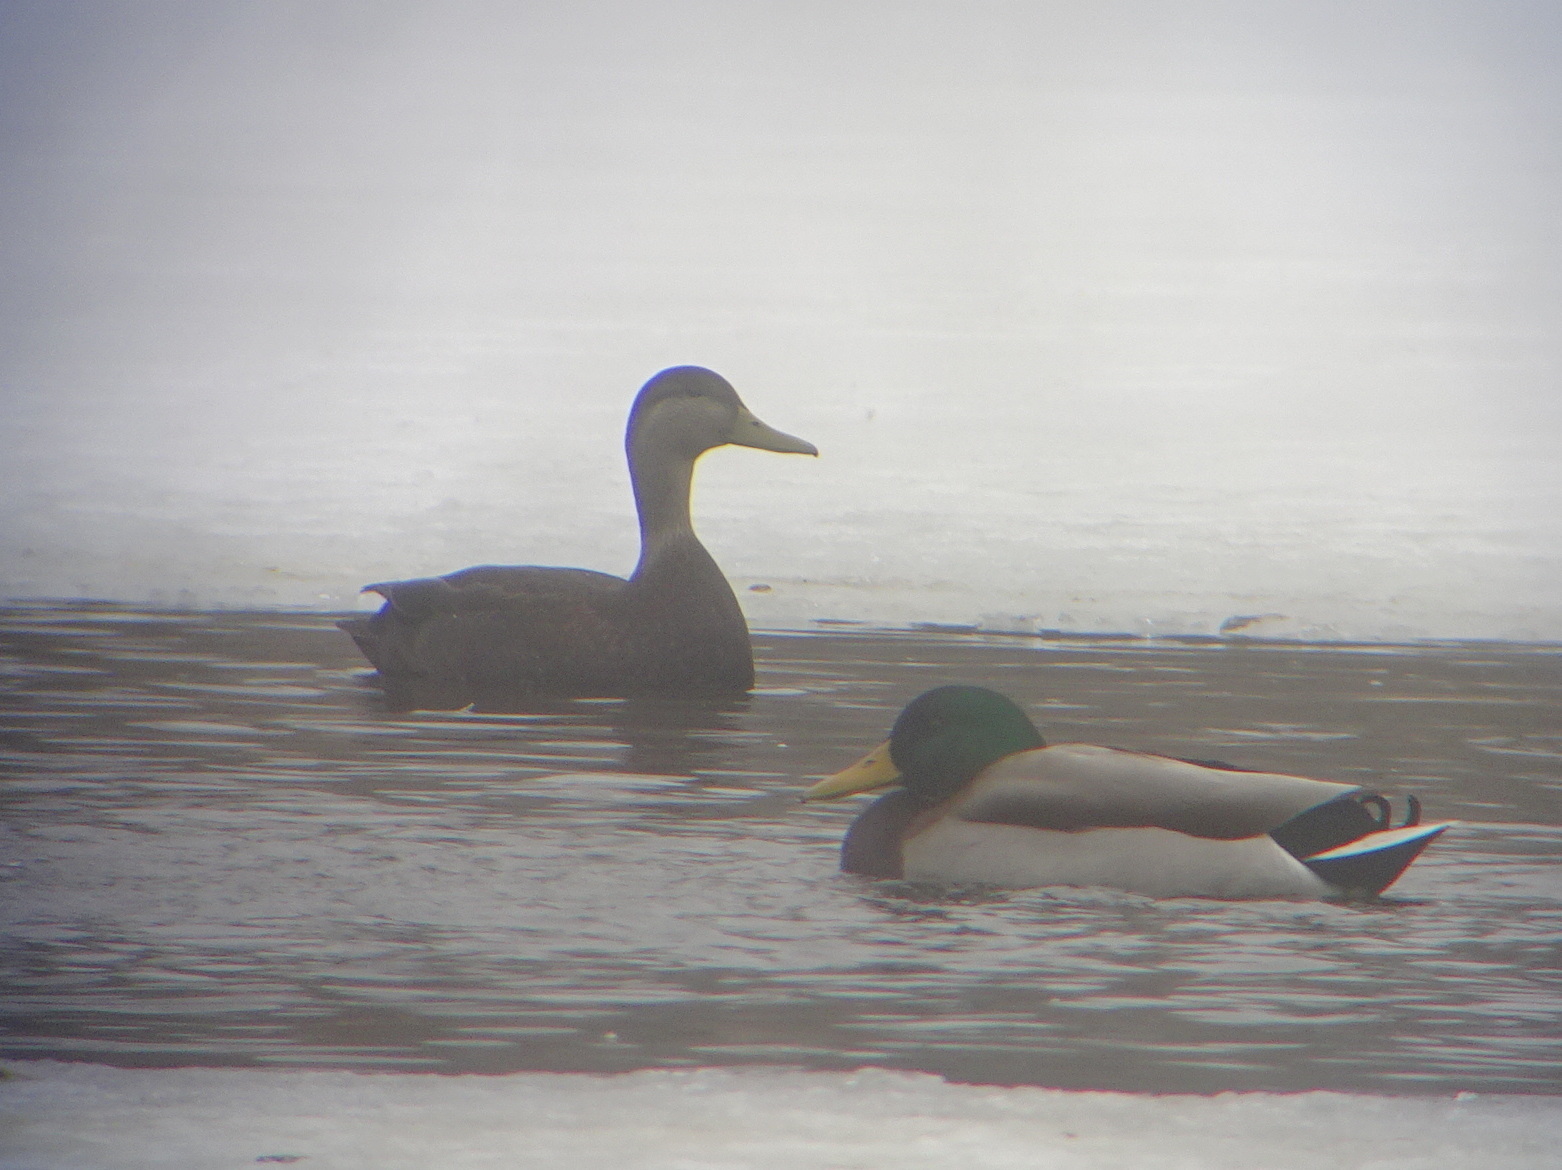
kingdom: Animalia
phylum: Chordata
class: Aves
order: Anseriformes
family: Anatidae
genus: Anas
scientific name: Anas rubripes
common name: American black duck
